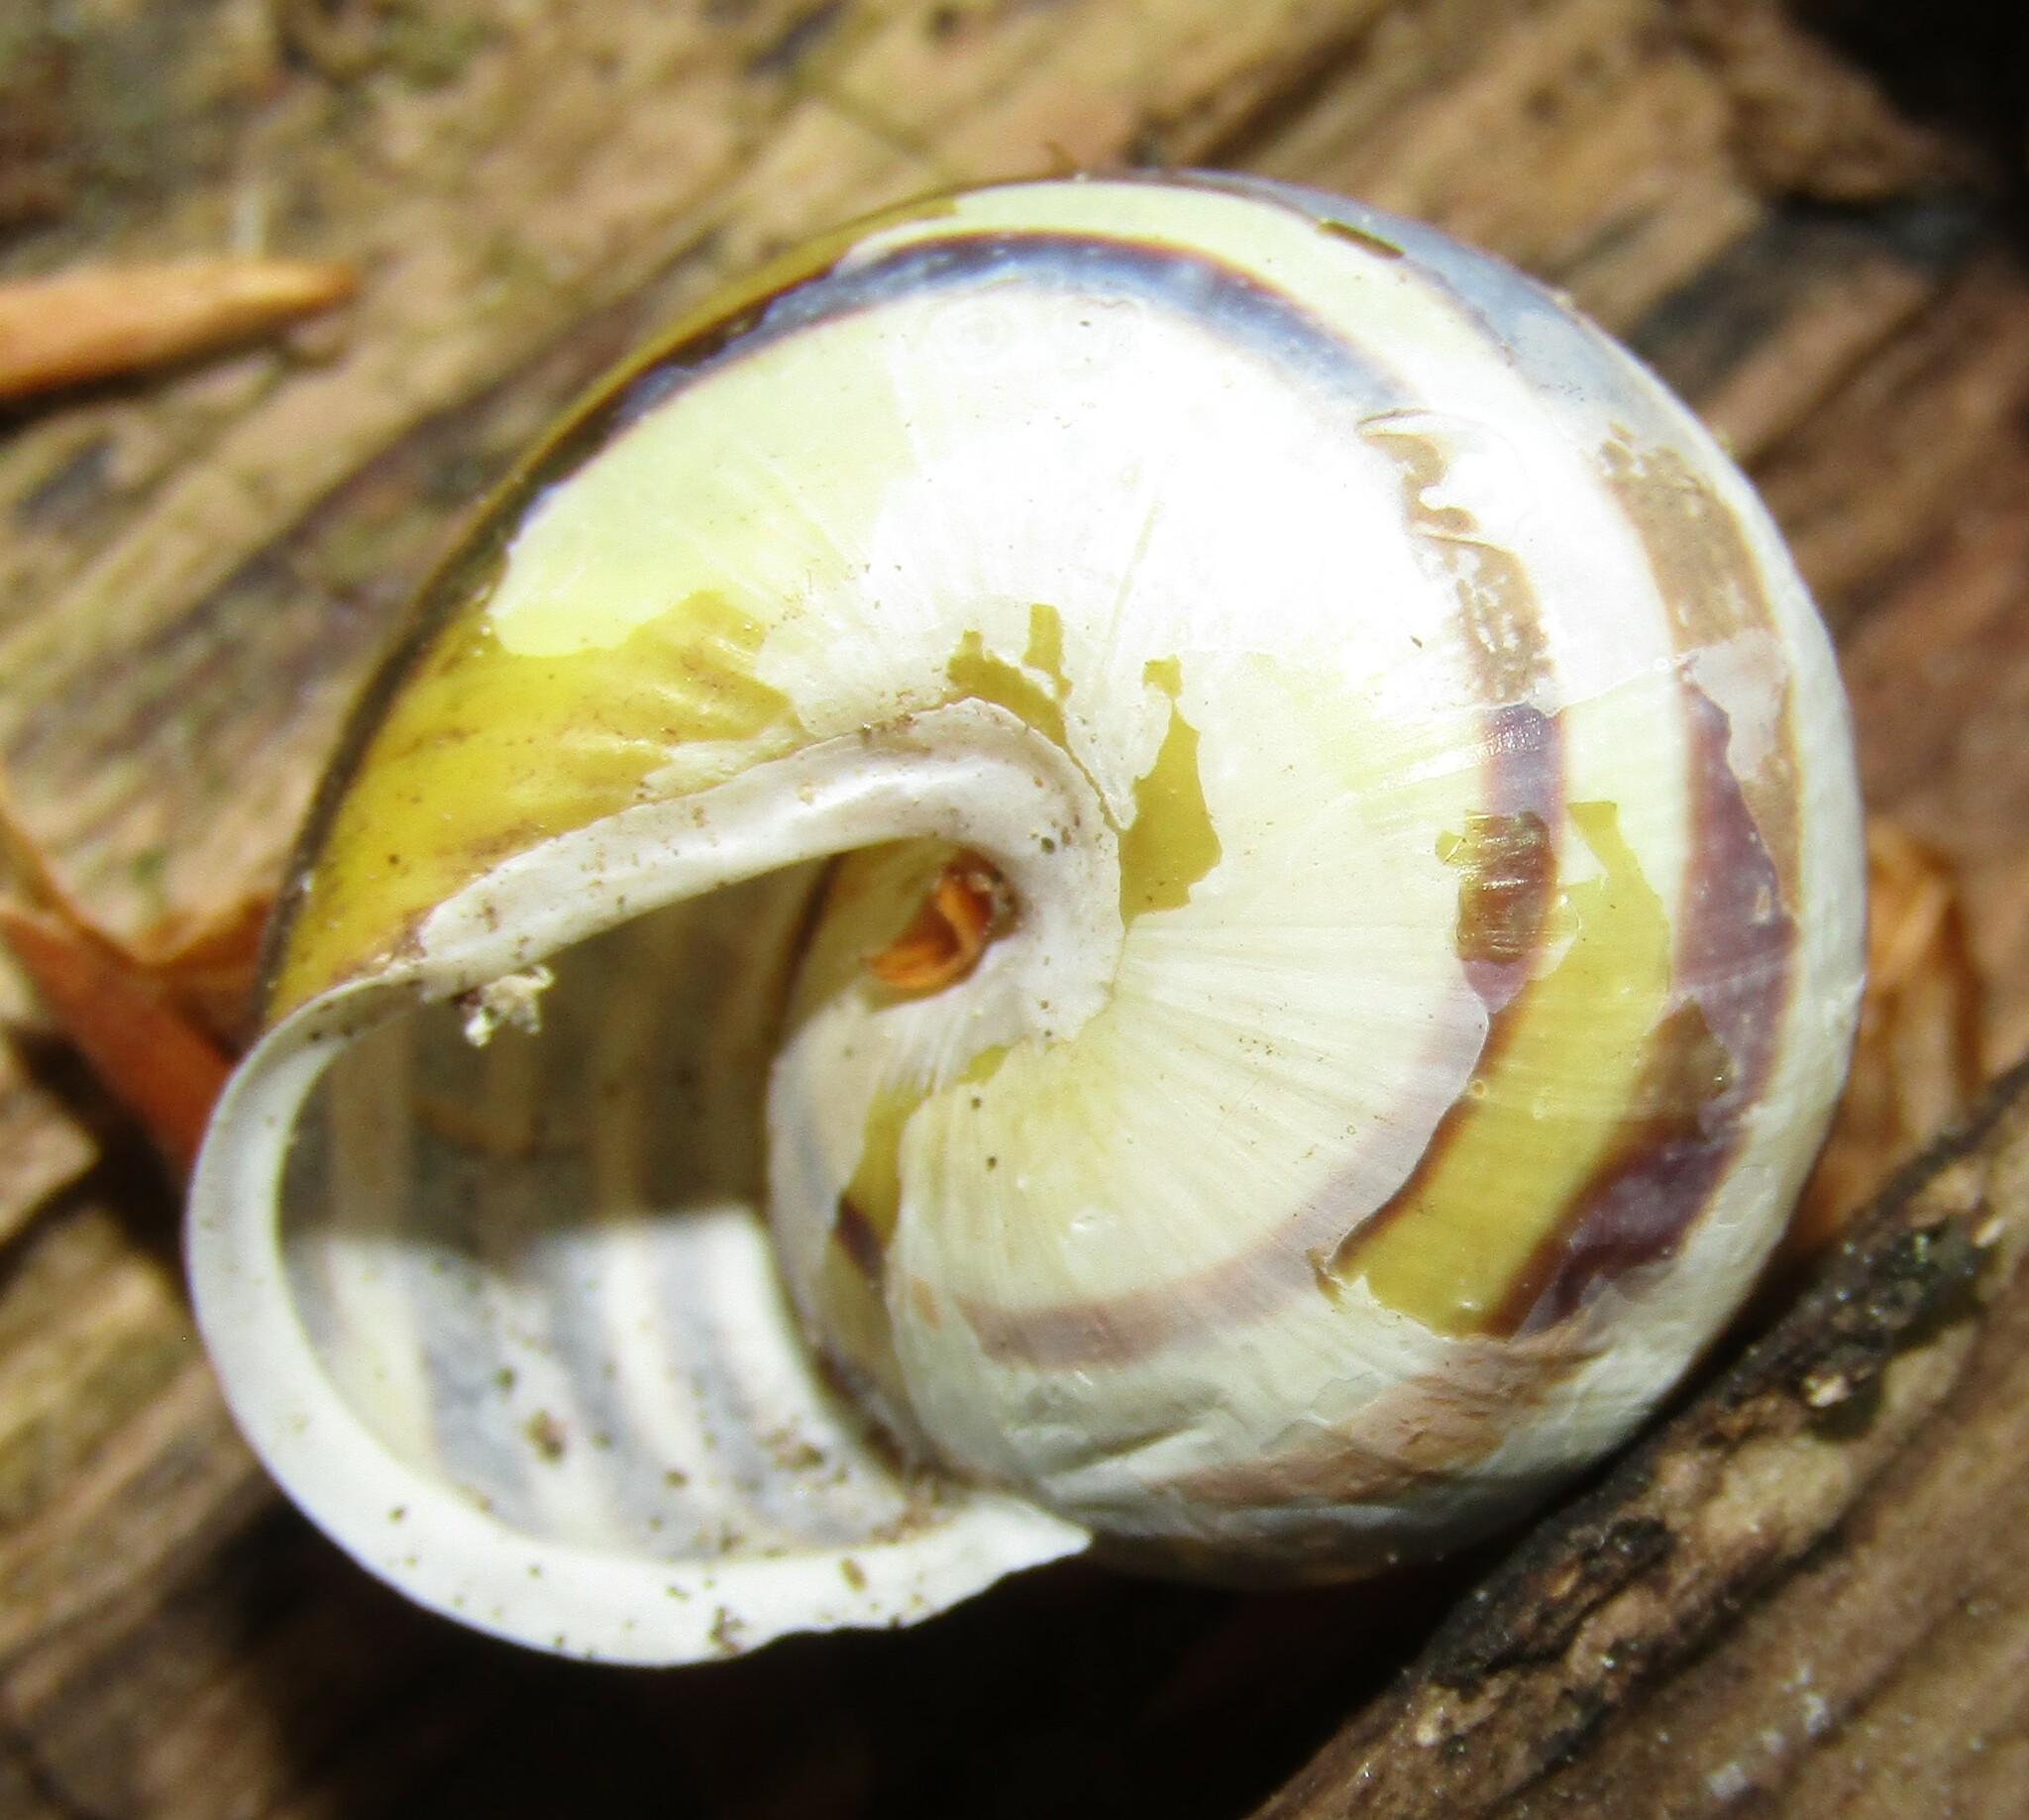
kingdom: Animalia
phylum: Mollusca
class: Gastropoda
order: Stylommatophora
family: Helicidae
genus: Cepaea
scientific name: Cepaea hortensis
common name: White-lip gardensnail
